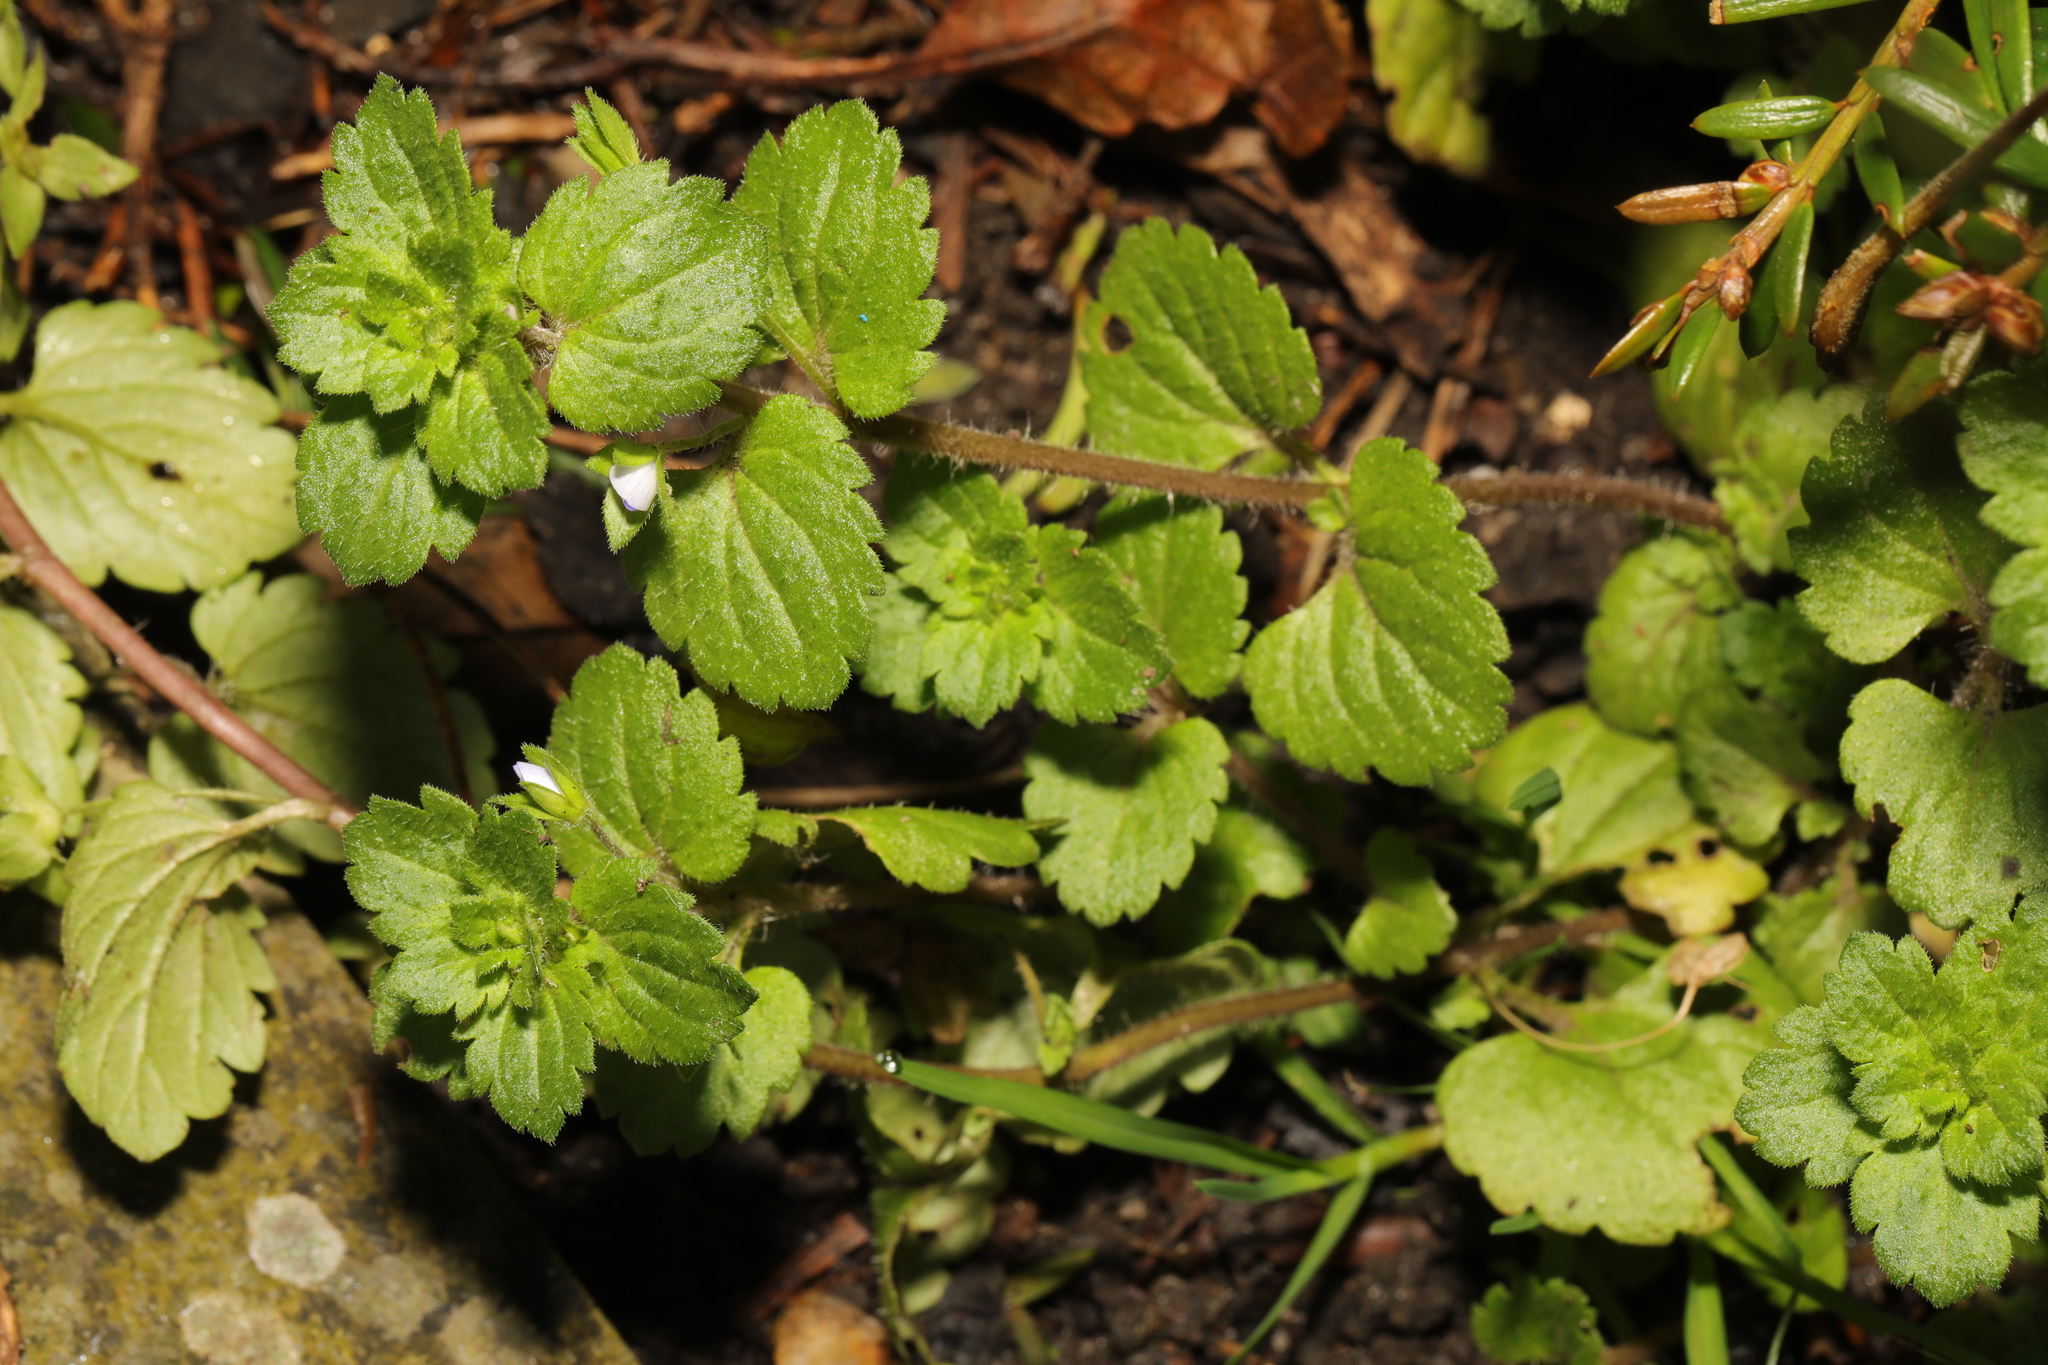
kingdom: Plantae
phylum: Tracheophyta
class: Magnoliopsida
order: Lamiales
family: Plantaginaceae
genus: Veronica
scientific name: Veronica persica
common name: Common field-speedwell
